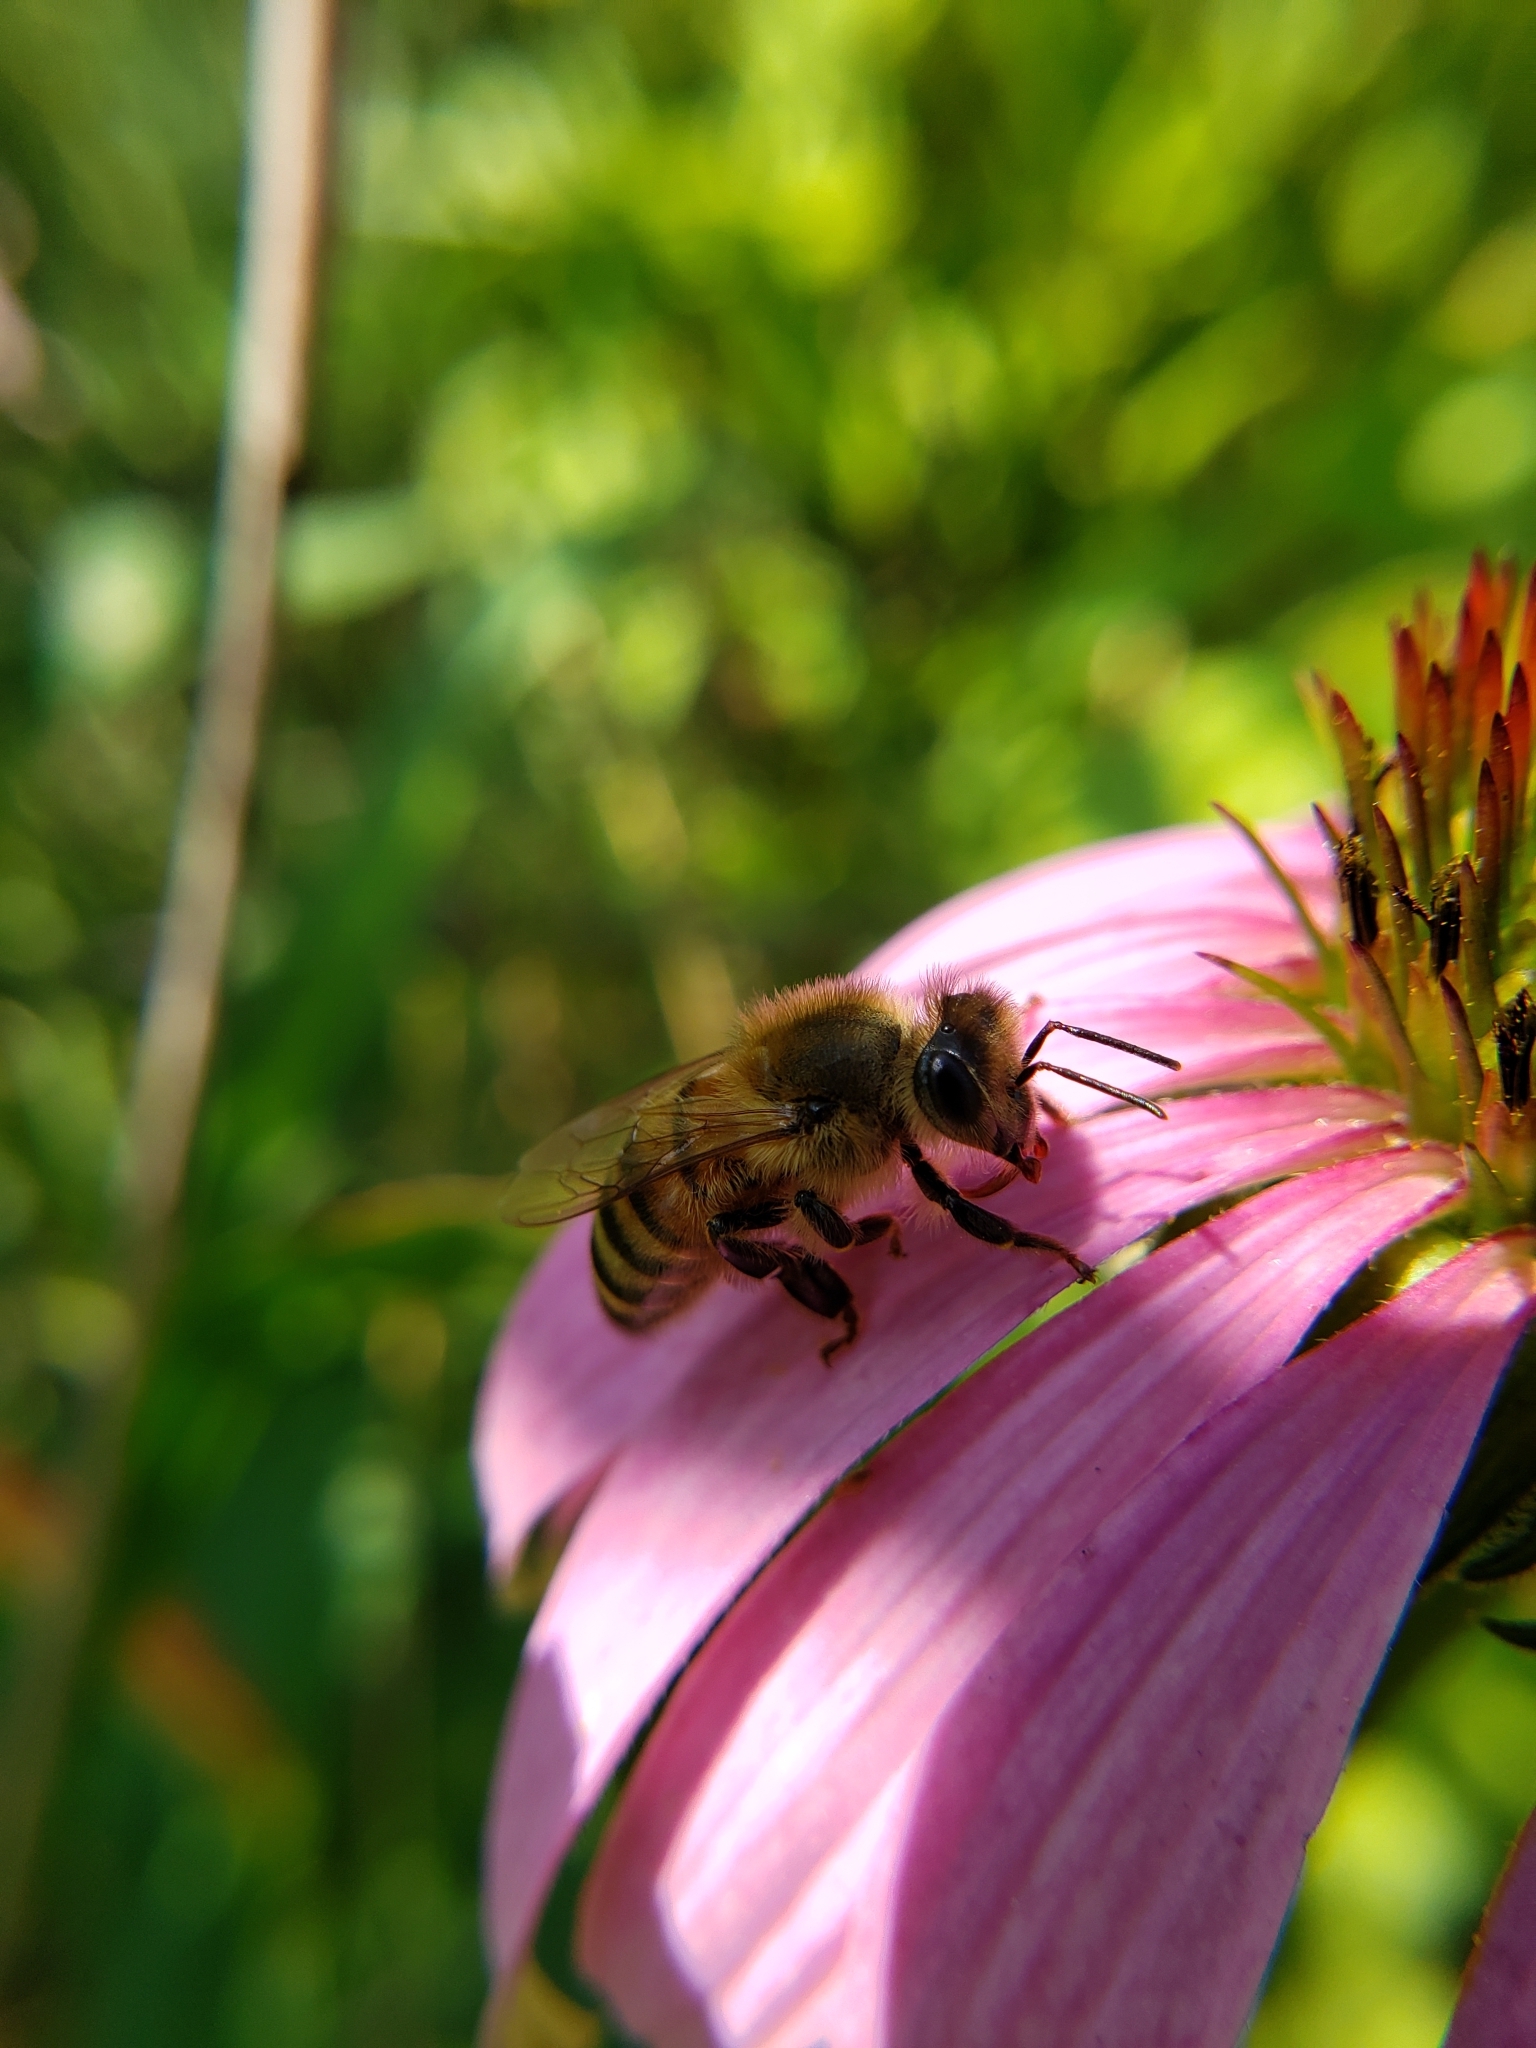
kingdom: Animalia
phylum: Arthropoda
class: Insecta
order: Hymenoptera
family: Apidae
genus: Apis
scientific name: Apis mellifera
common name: Honey bee
